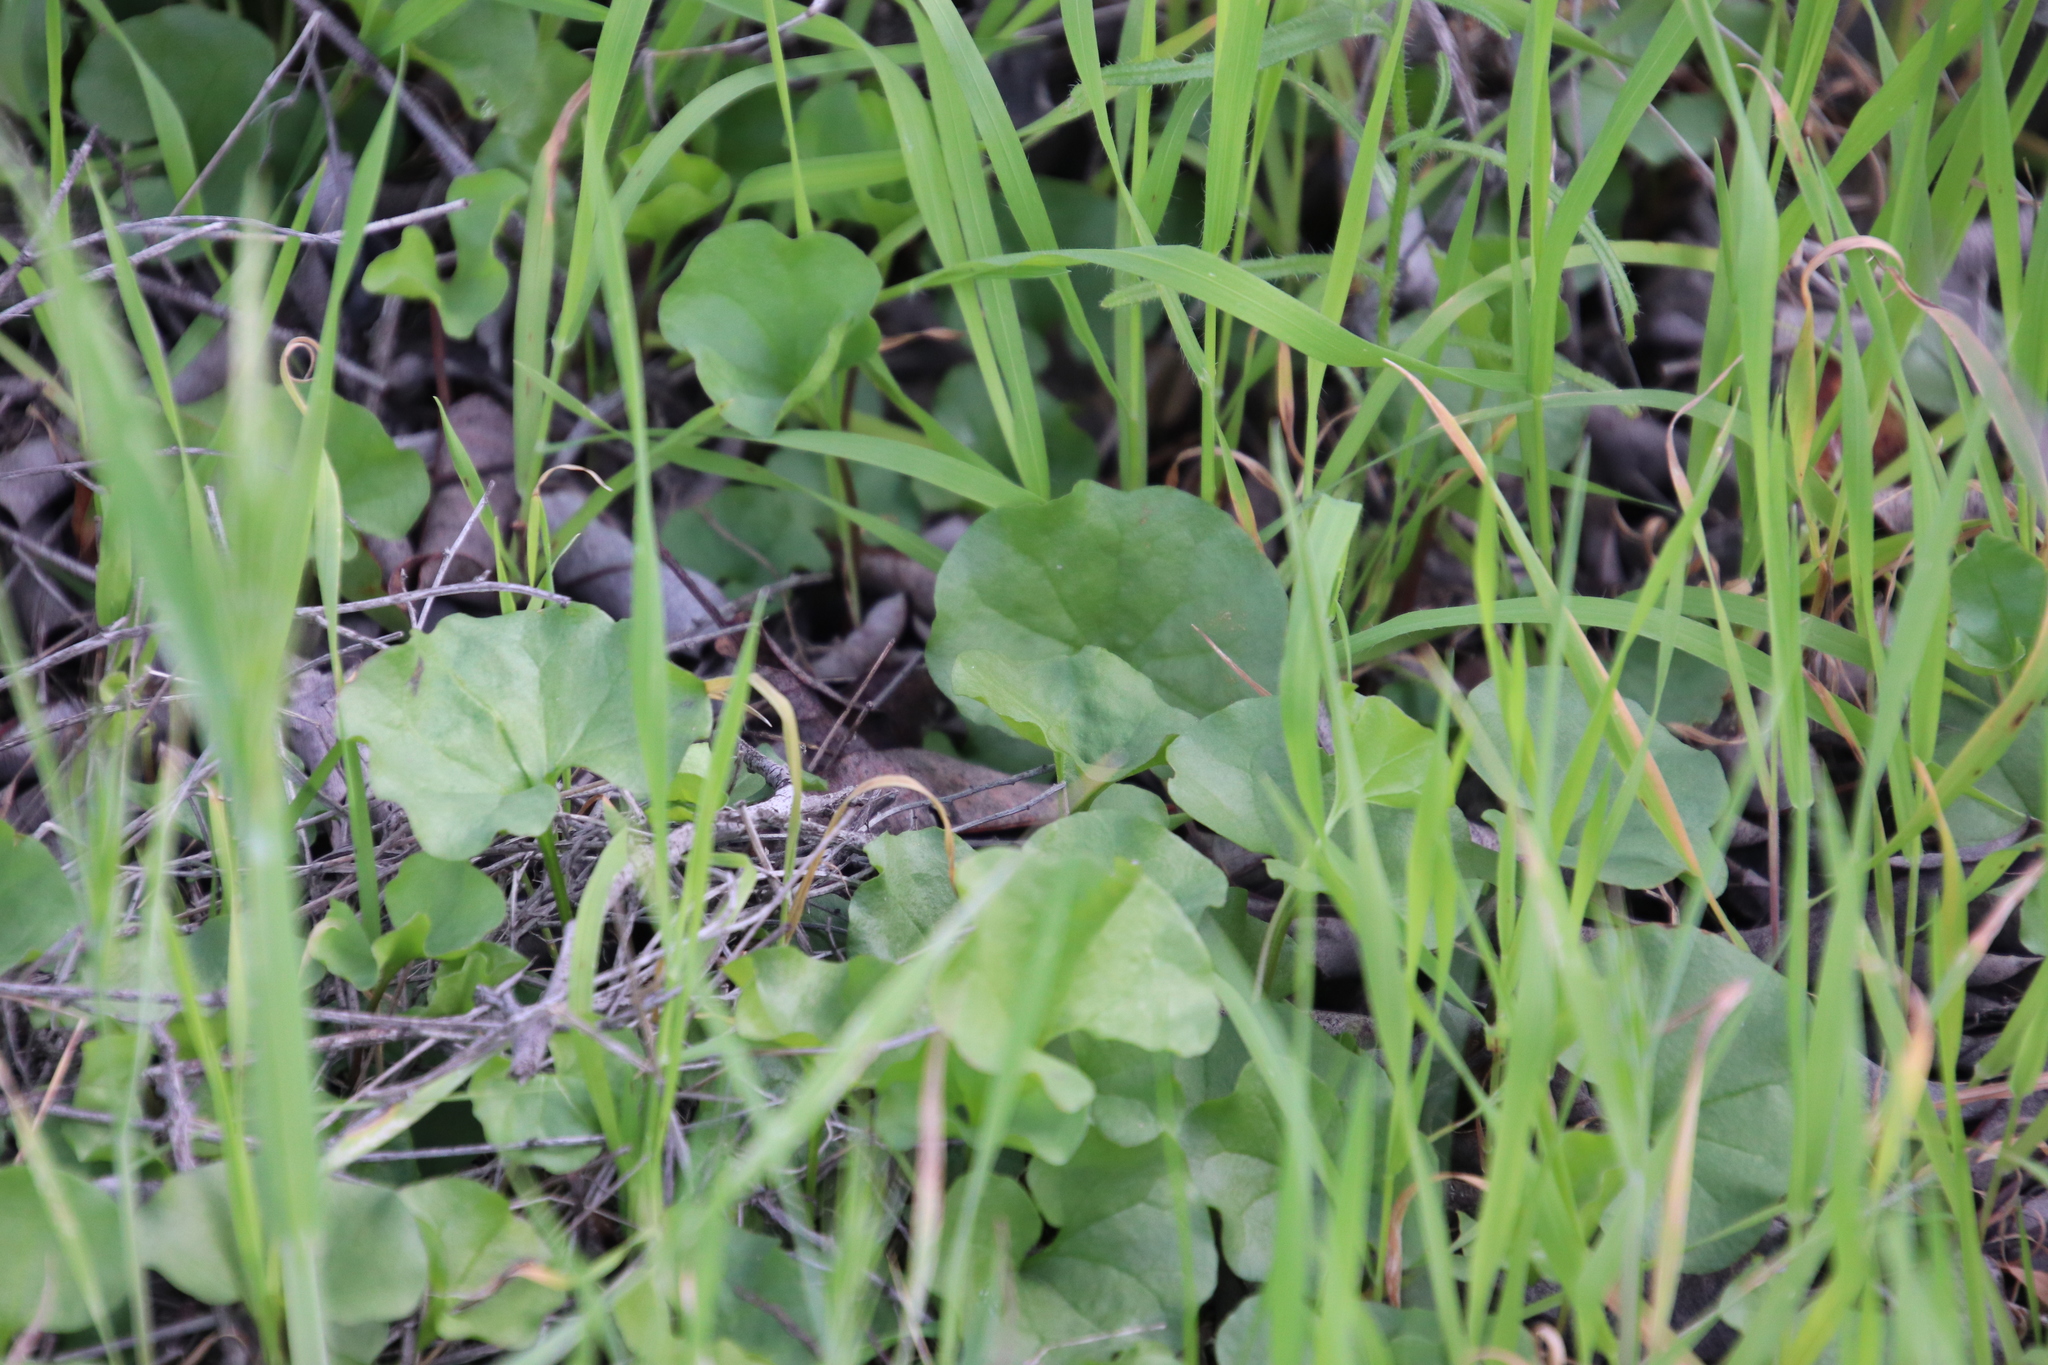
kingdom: Plantae
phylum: Tracheophyta
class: Magnoliopsida
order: Solanales
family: Convolvulaceae
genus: Dichondra
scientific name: Dichondra occidentalis
